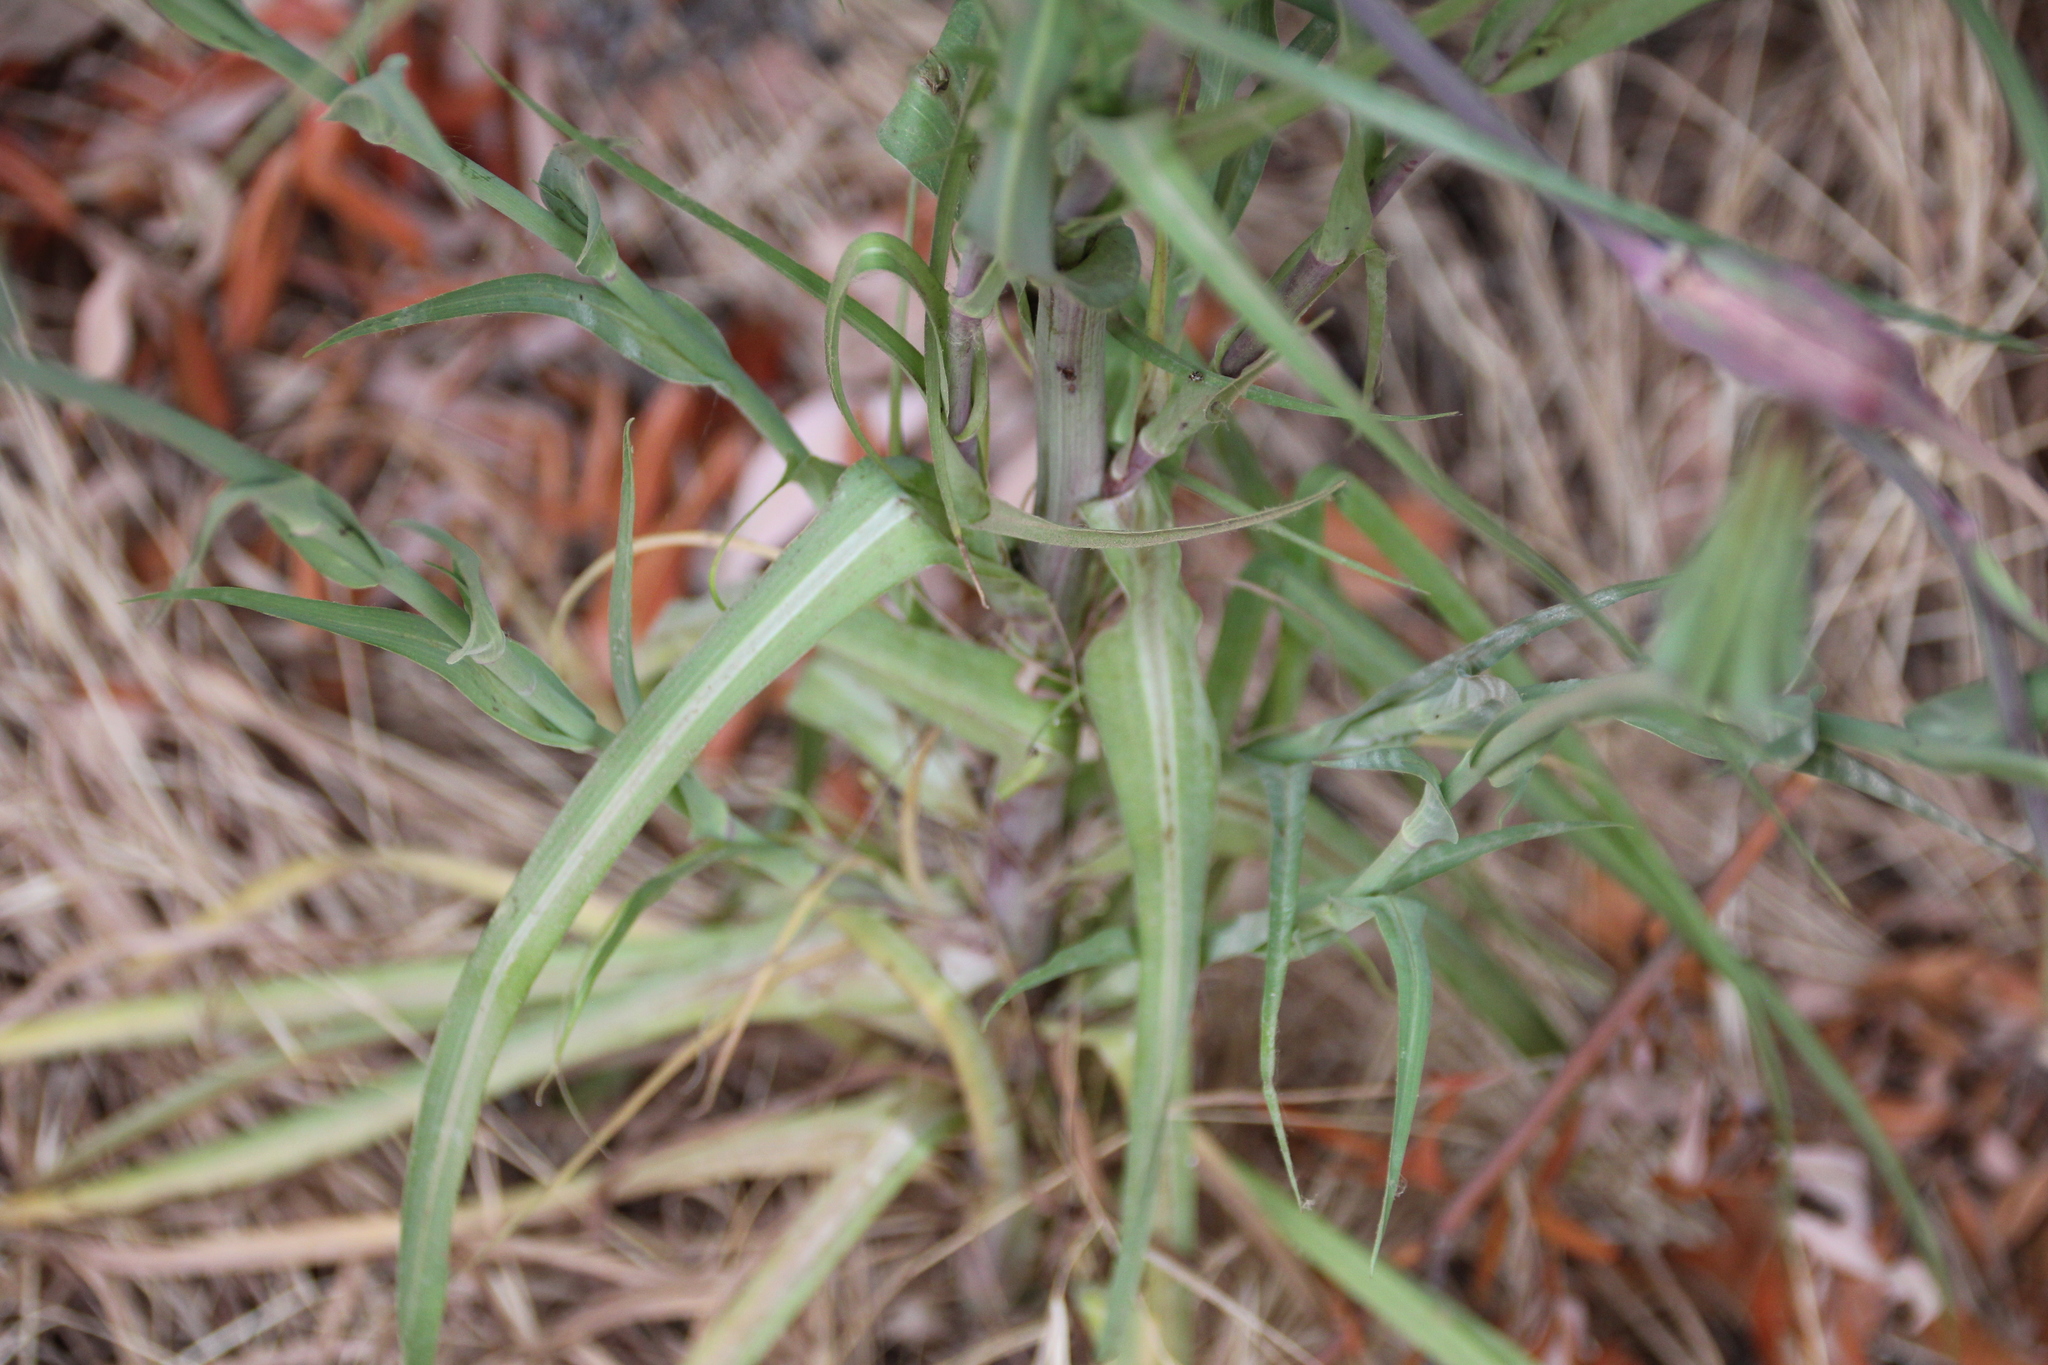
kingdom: Plantae
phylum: Tracheophyta
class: Magnoliopsida
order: Asterales
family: Asteraceae
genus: Tragopogon
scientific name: Tragopogon porrifolius
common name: Salsify
